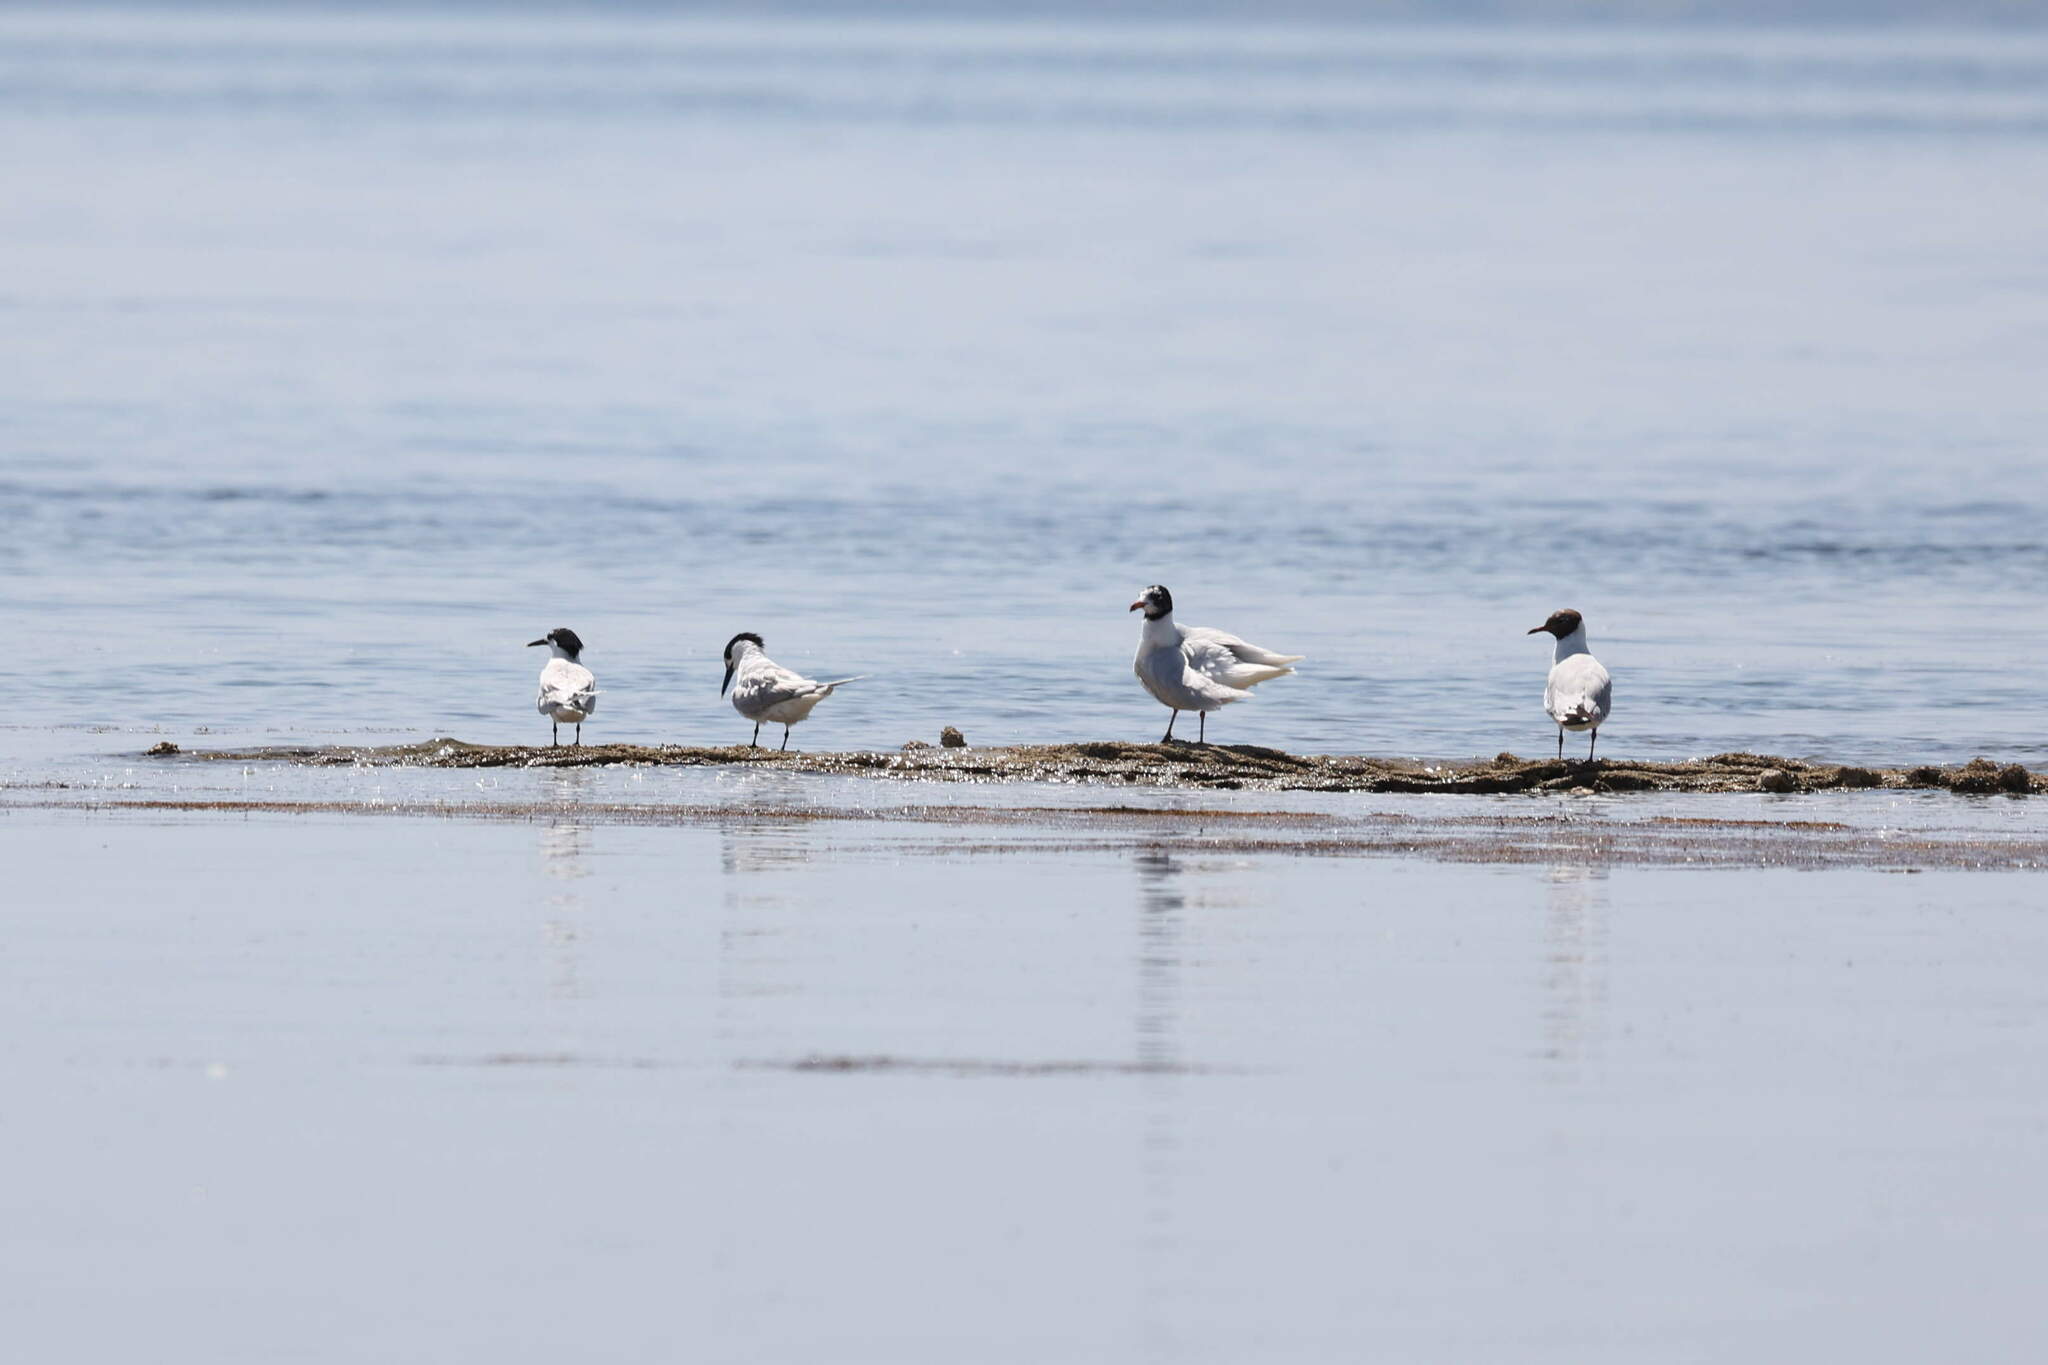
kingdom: Animalia
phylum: Chordata
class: Aves
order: Charadriiformes
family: Laridae
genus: Thalasseus
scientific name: Thalasseus sandvicensis
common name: Sandwich tern
